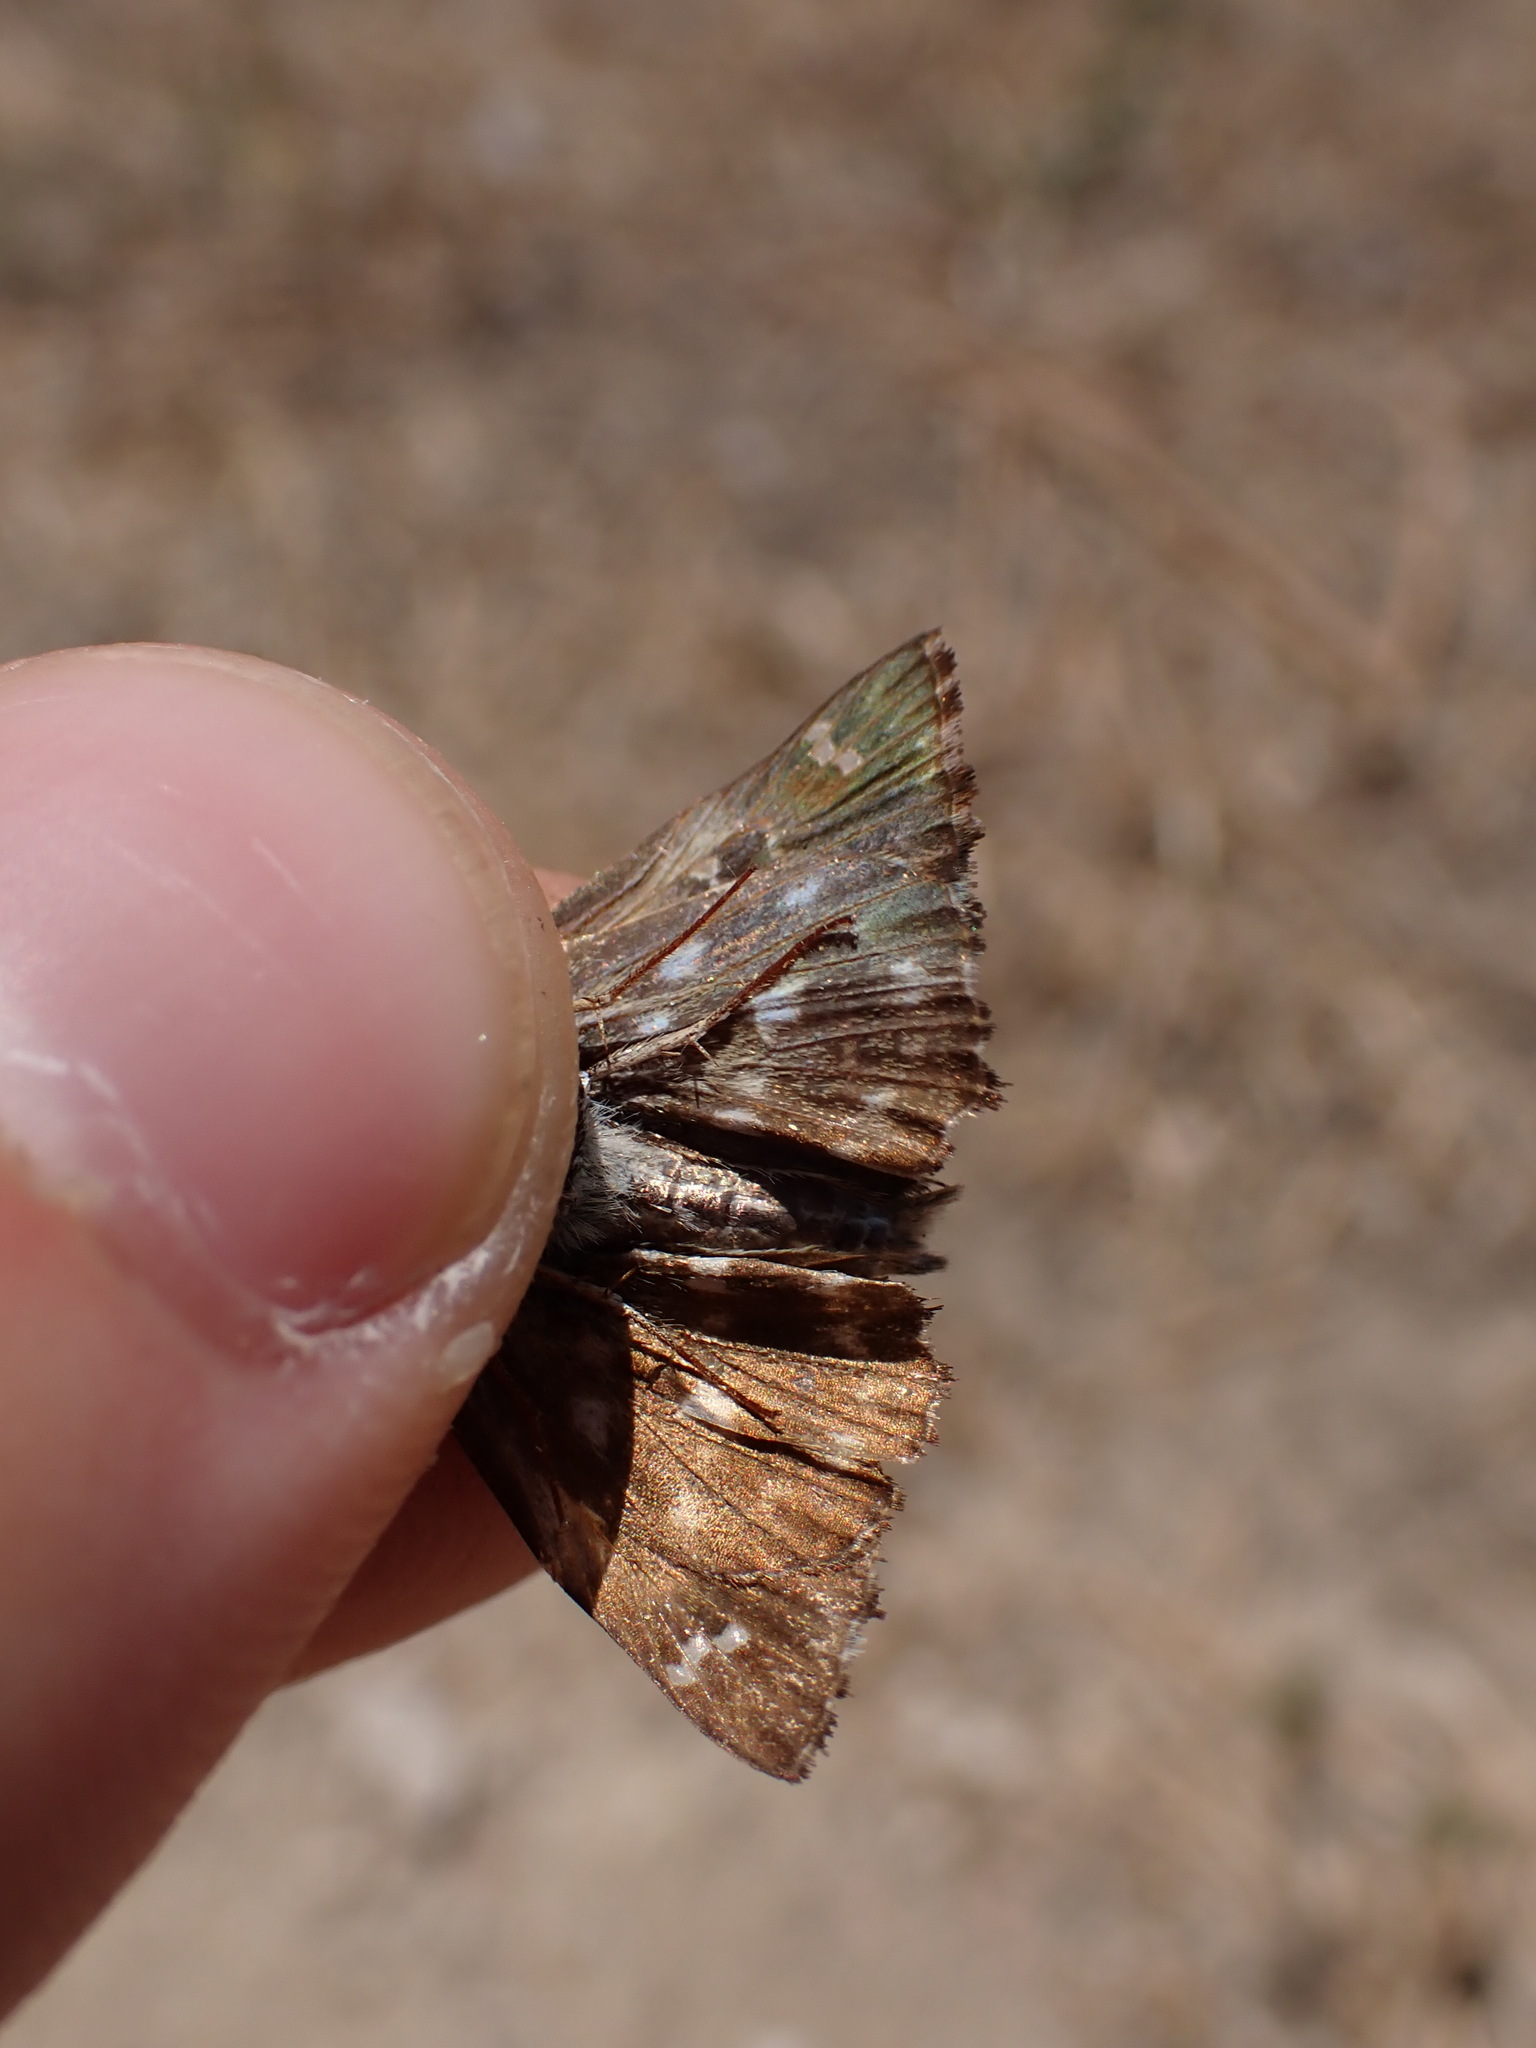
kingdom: Animalia
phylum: Arthropoda
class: Insecta
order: Lepidoptera
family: Hesperiidae
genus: Carcharodus
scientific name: Carcharodus alceae
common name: Mallow skipper
